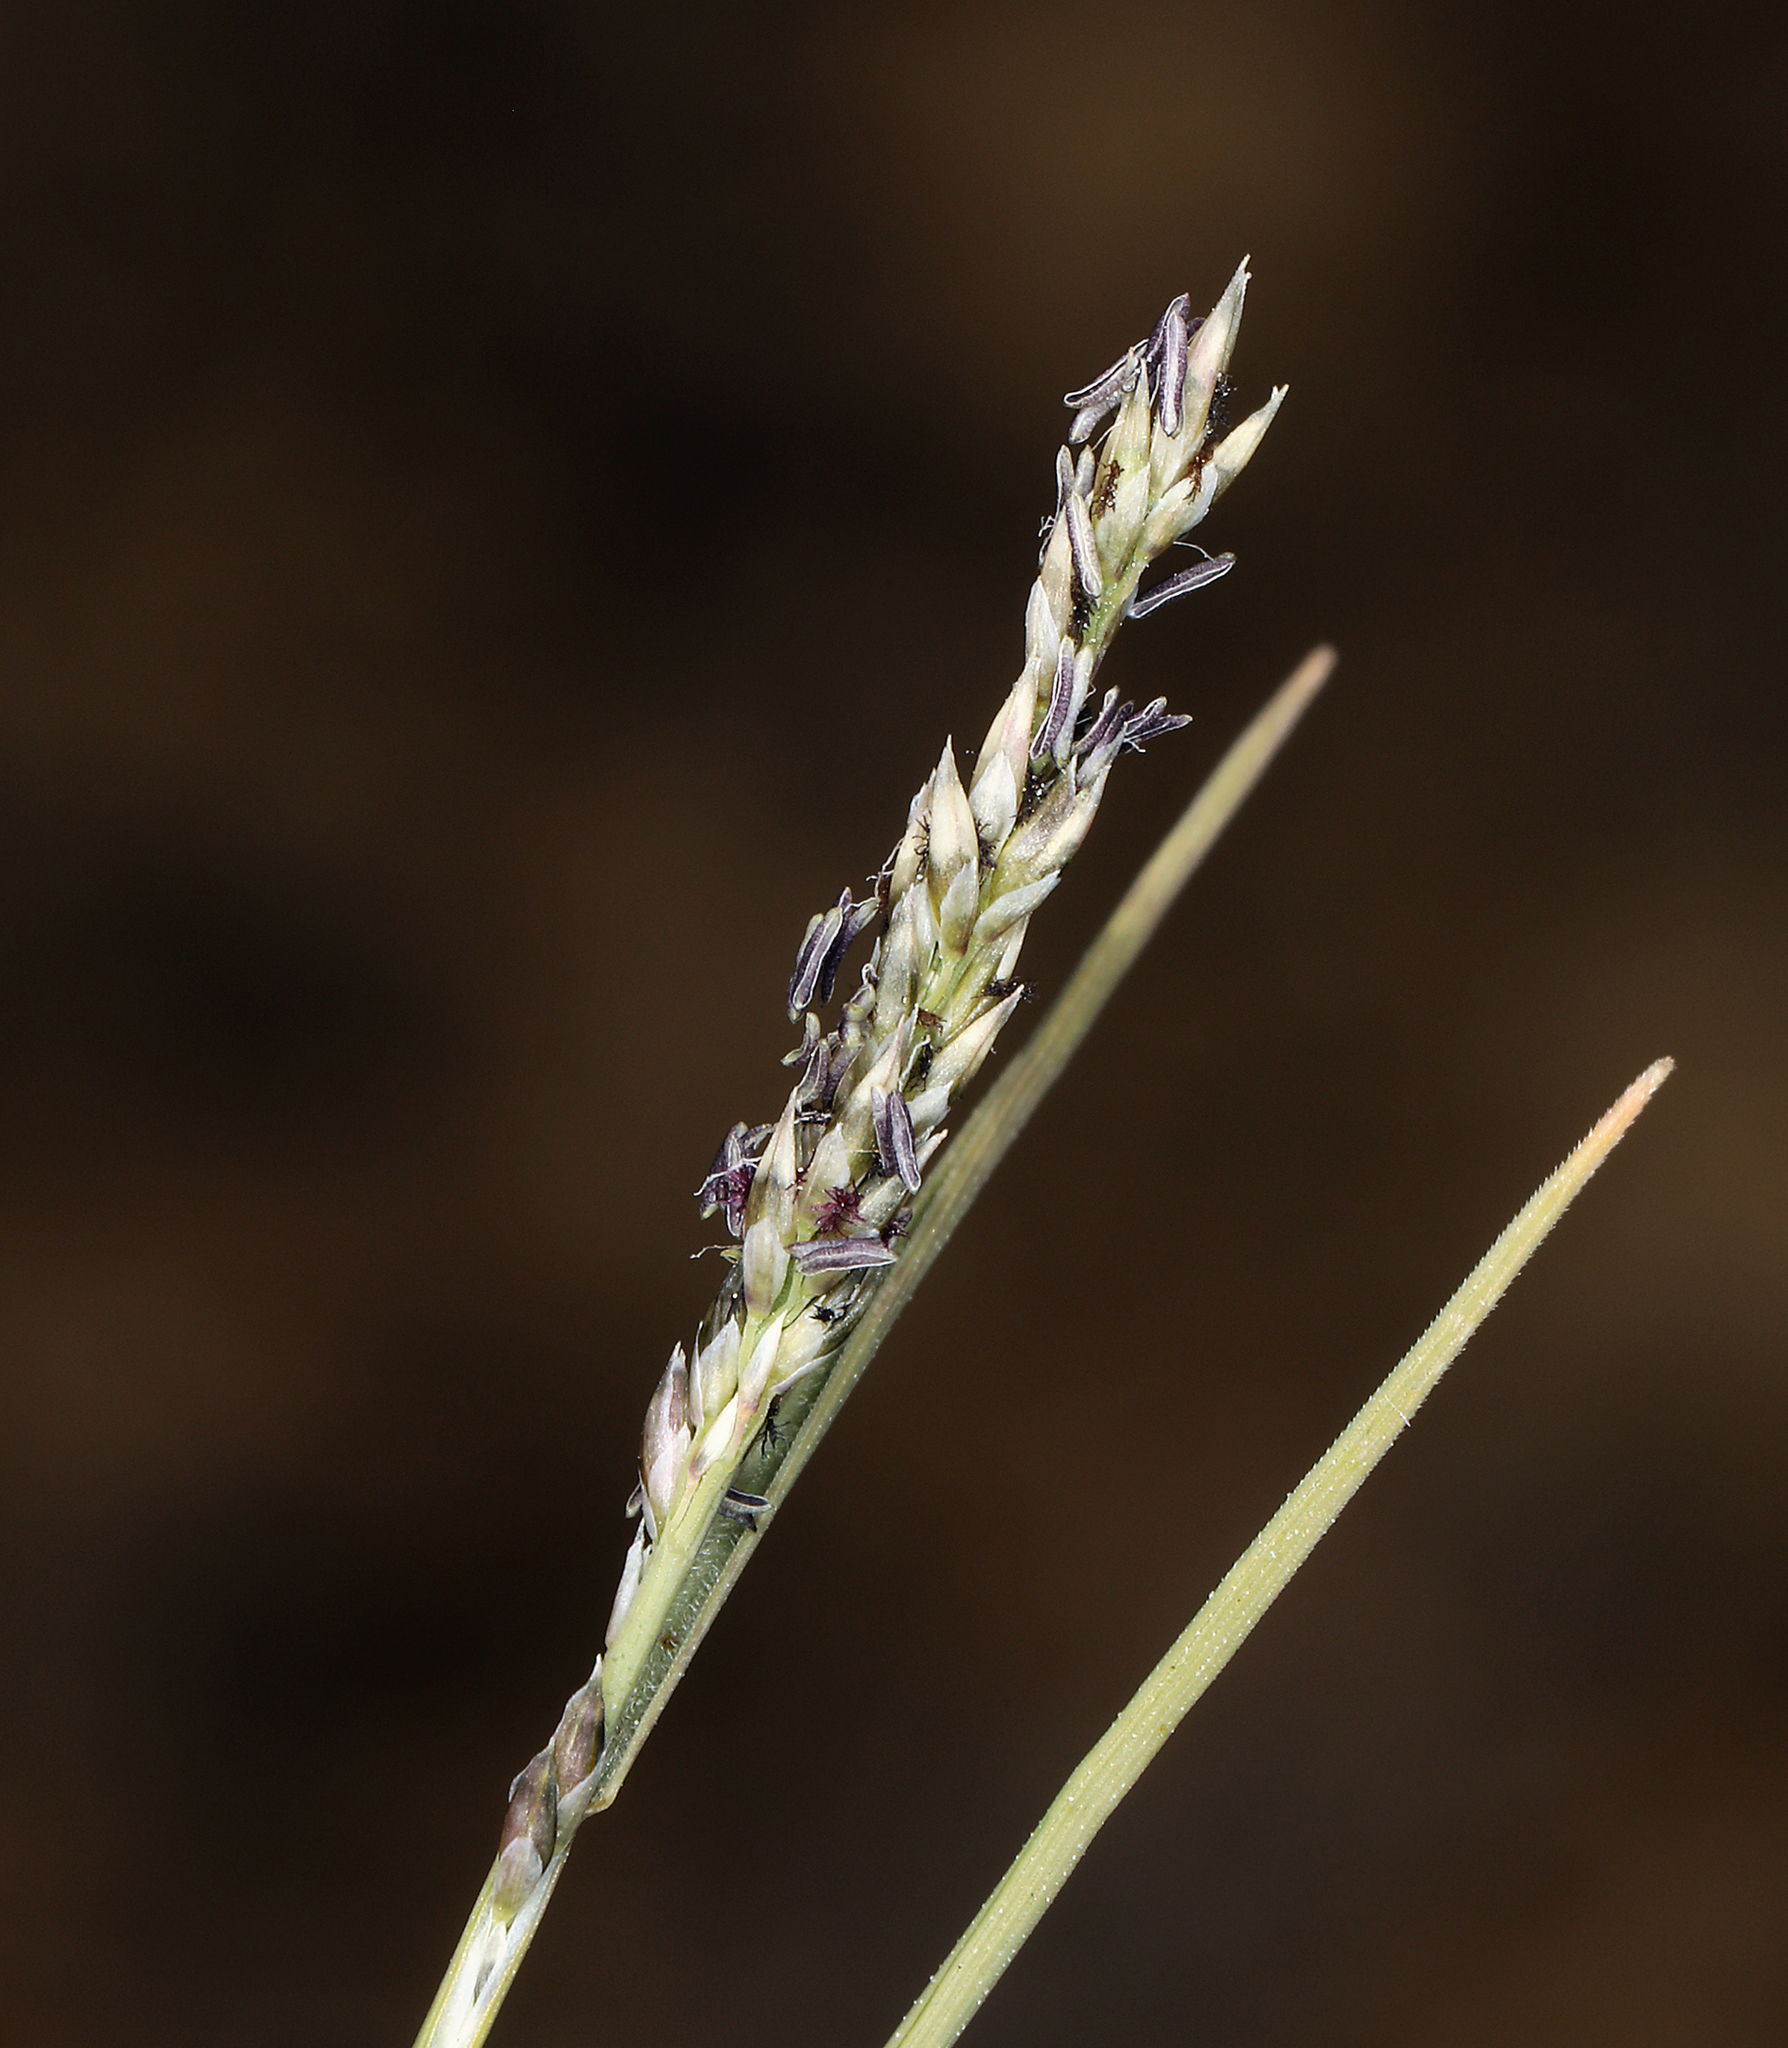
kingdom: Plantae
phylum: Tracheophyta
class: Liliopsida
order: Poales
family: Poaceae
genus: Muhlenbergia
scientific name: Muhlenbergia richardsonis
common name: Mat muhly
